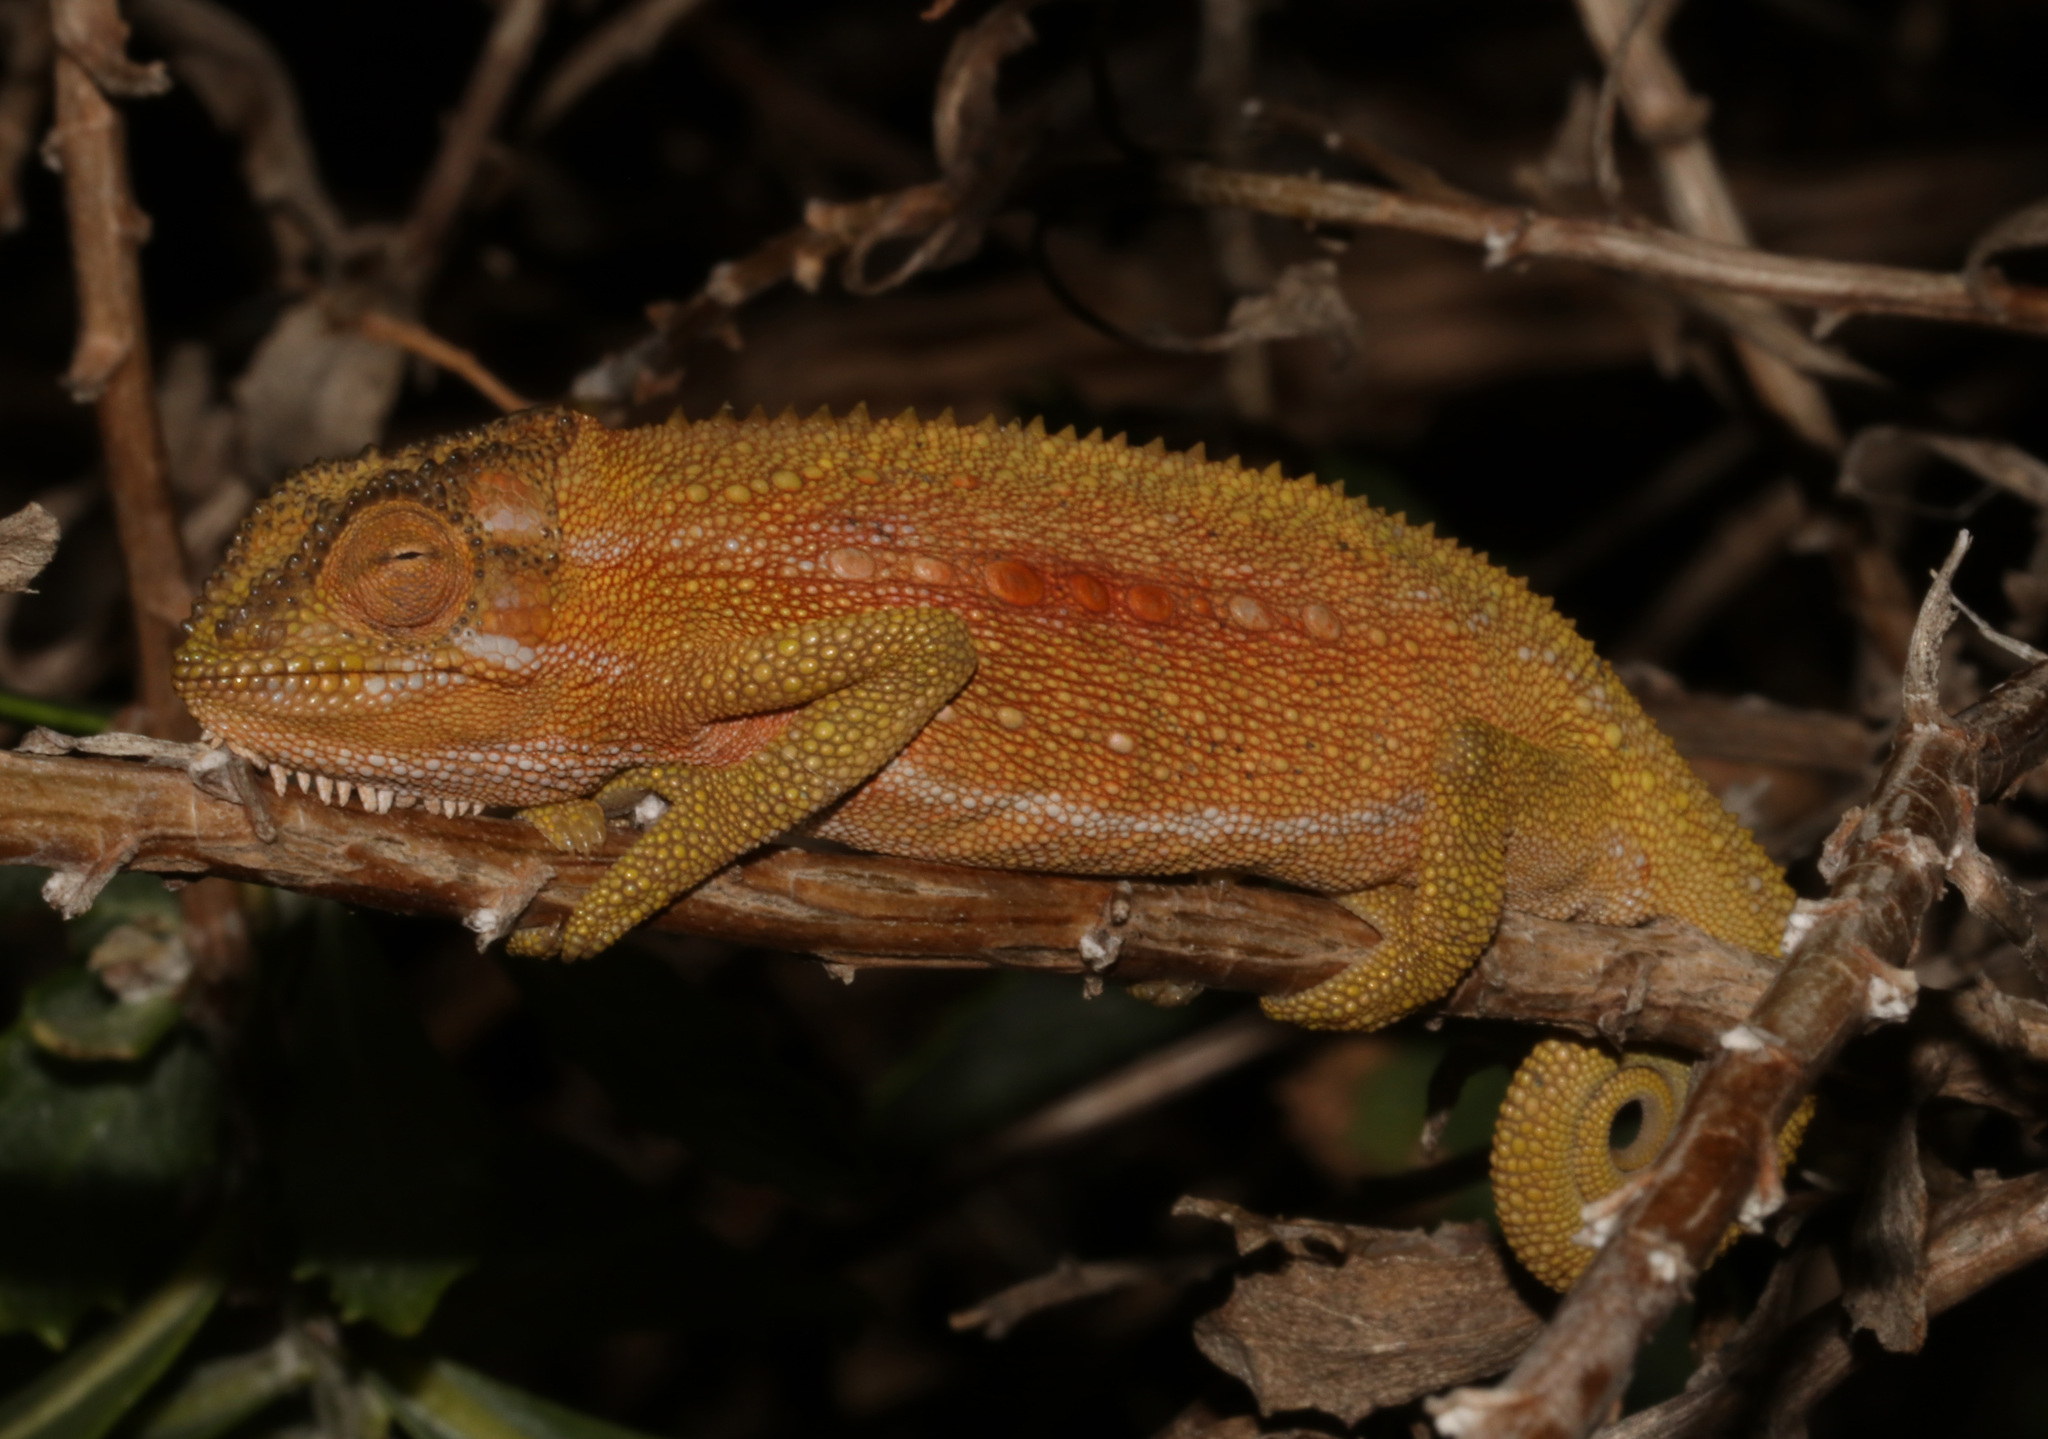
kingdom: Animalia
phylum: Chordata
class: Squamata
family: Chamaeleonidae
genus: Bradypodion
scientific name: Bradypodion pumilum
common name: Cape dwarf chameleon
